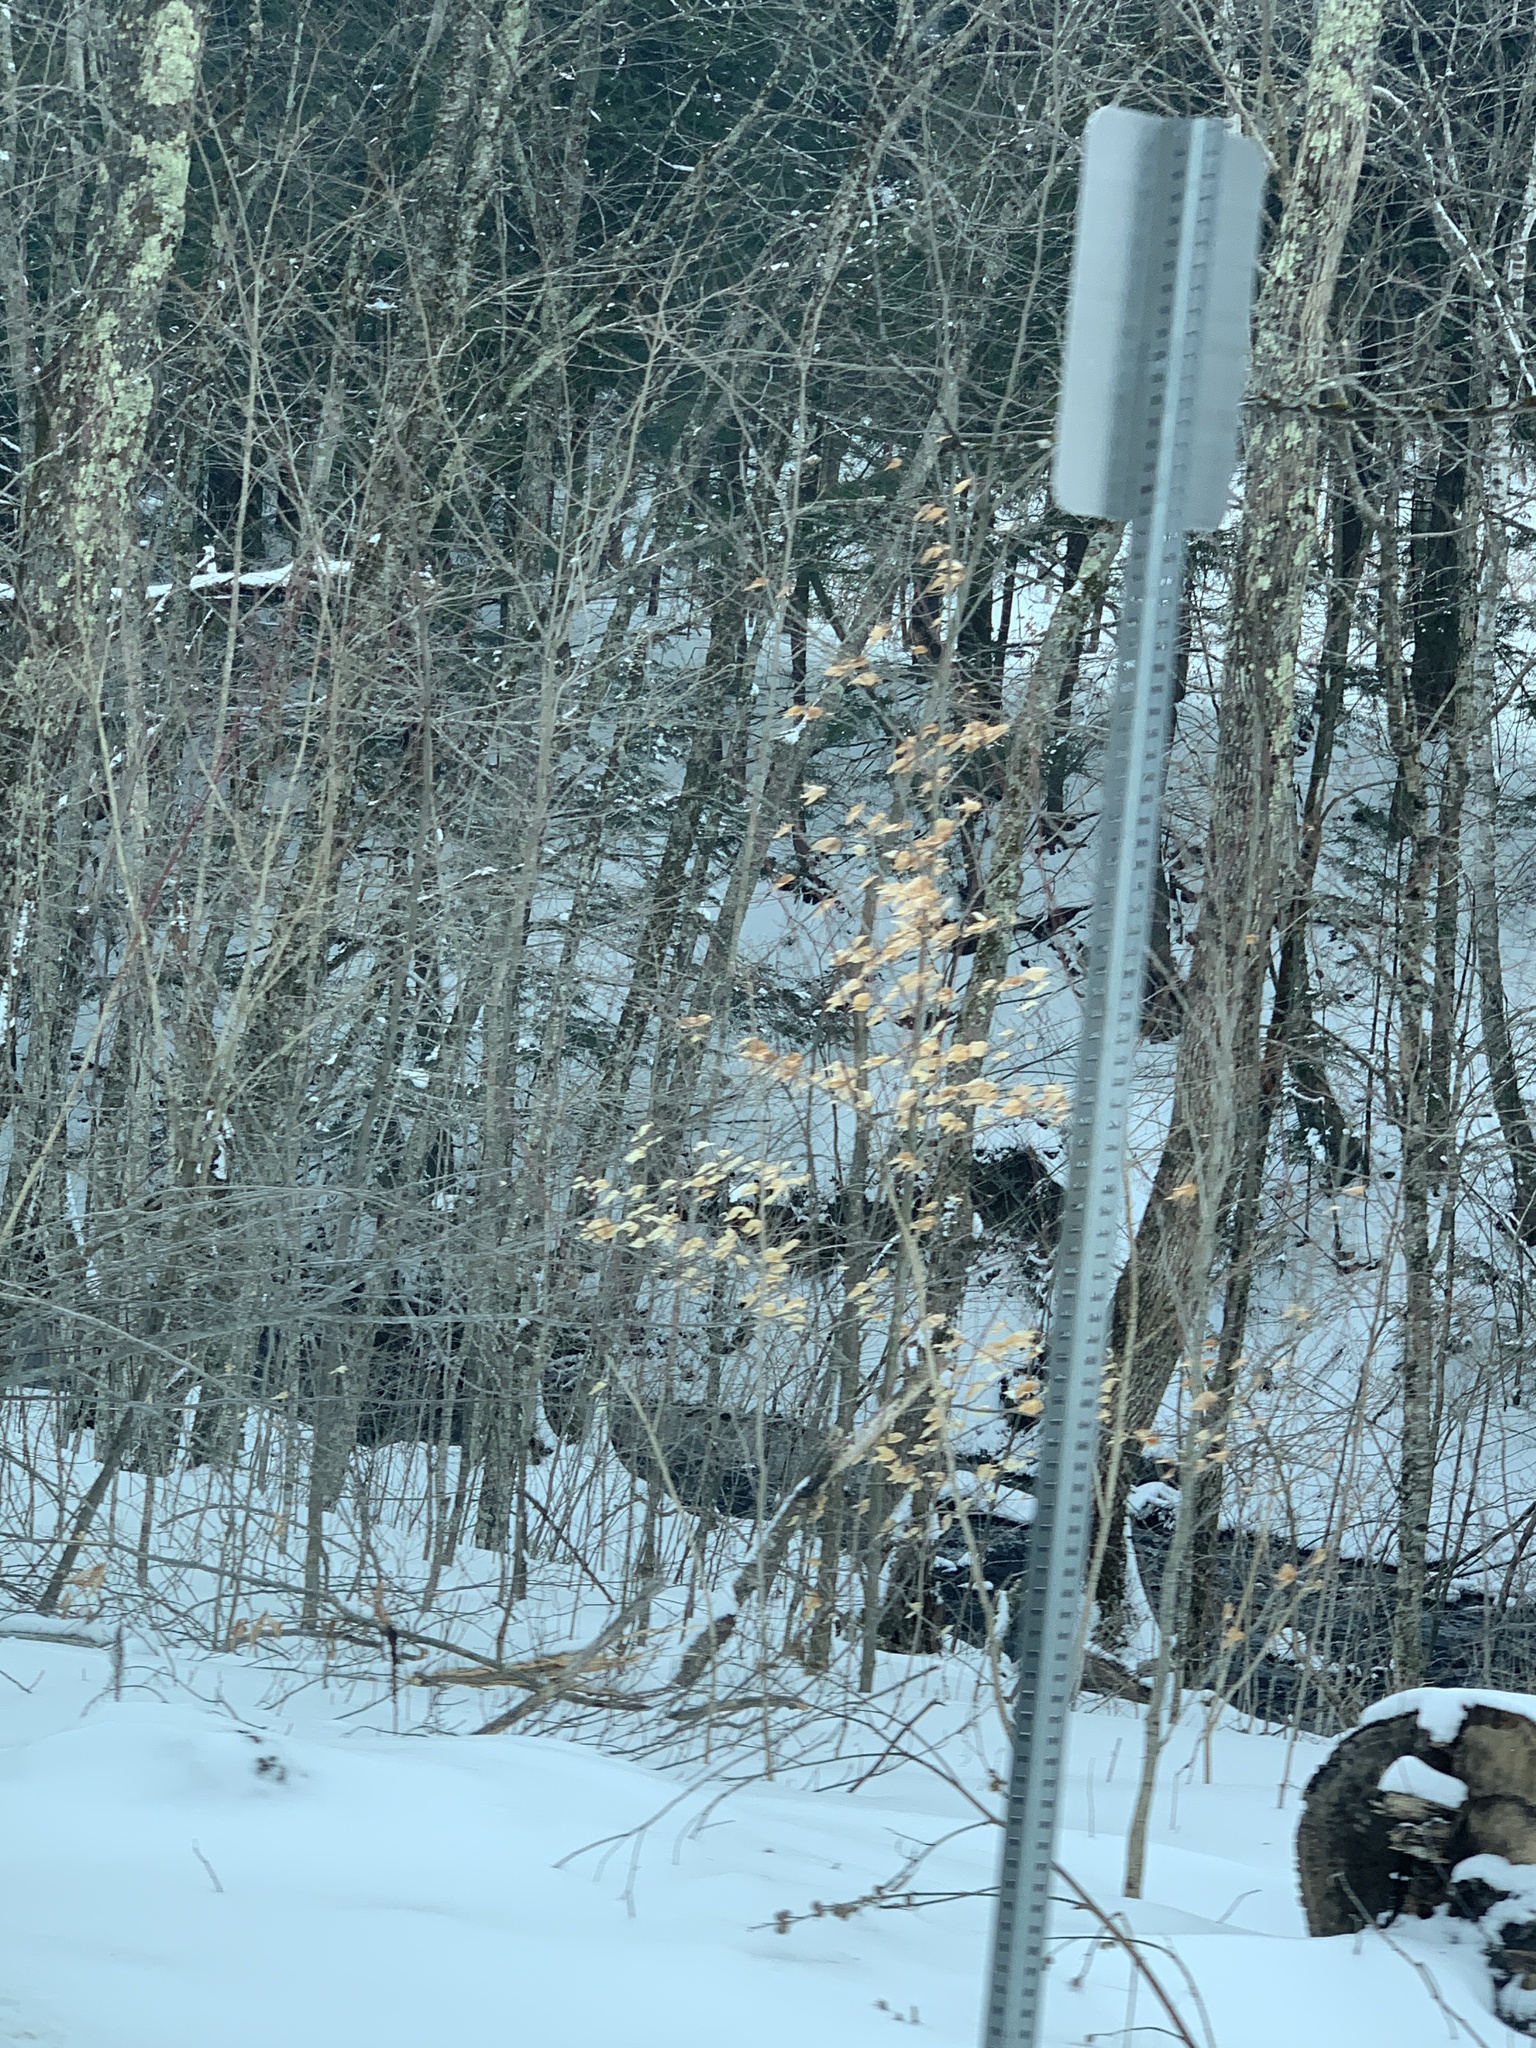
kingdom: Plantae
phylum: Tracheophyta
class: Magnoliopsida
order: Fagales
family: Fagaceae
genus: Fagus
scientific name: Fagus grandifolia
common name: American beech
